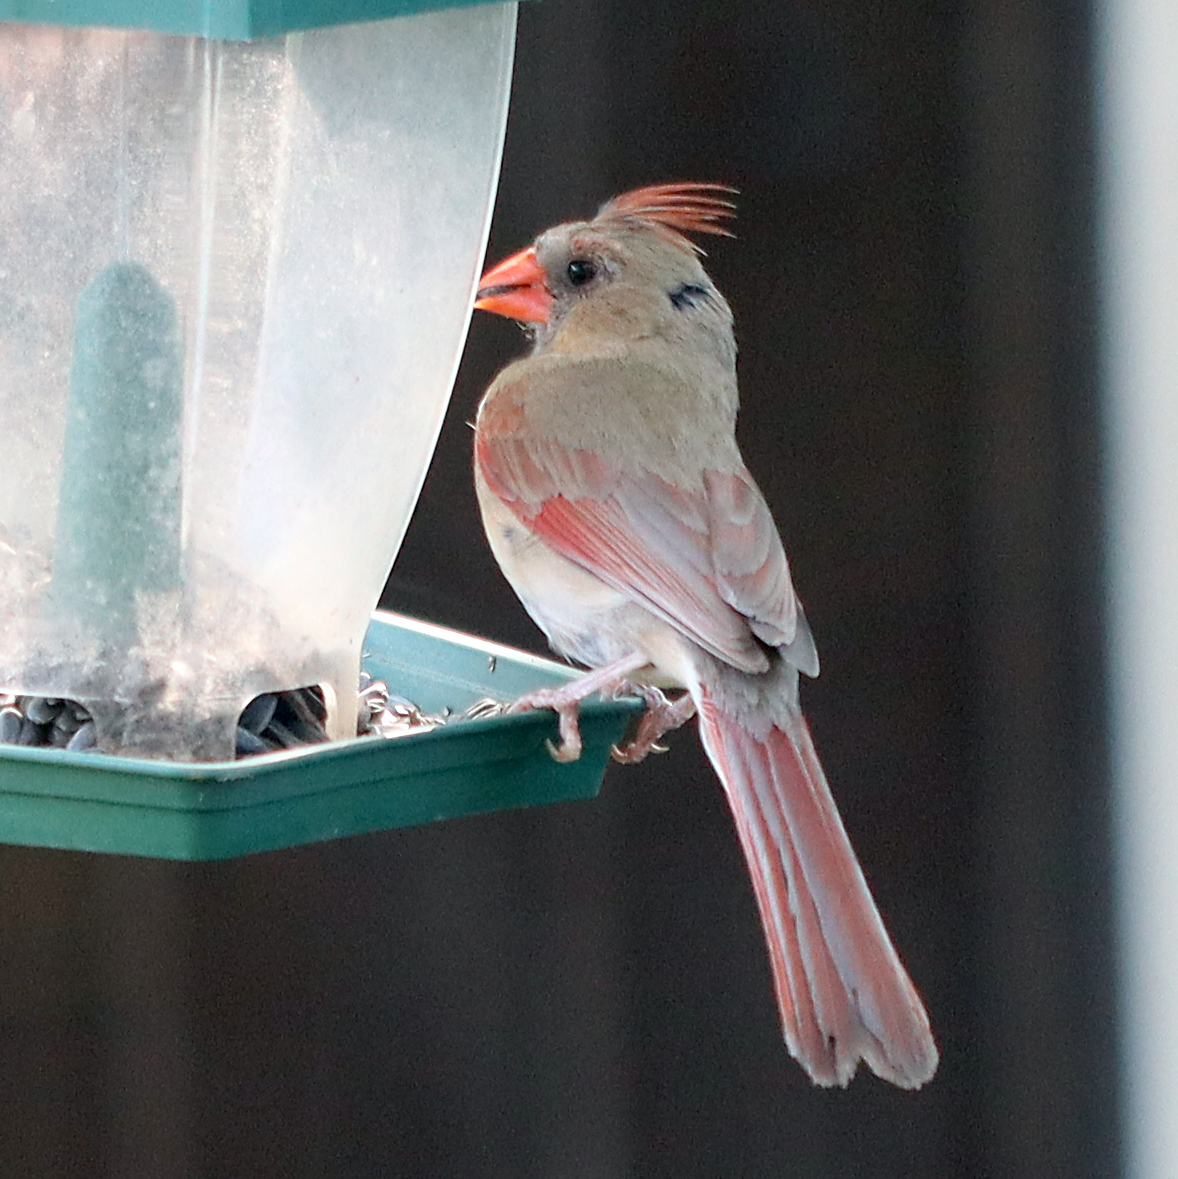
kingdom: Animalia
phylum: Chordata
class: Aves
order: Passeriformes
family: Cardinalidae
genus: Cardinalis
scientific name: Cardinalis cardinalis
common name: Northern cardinal
